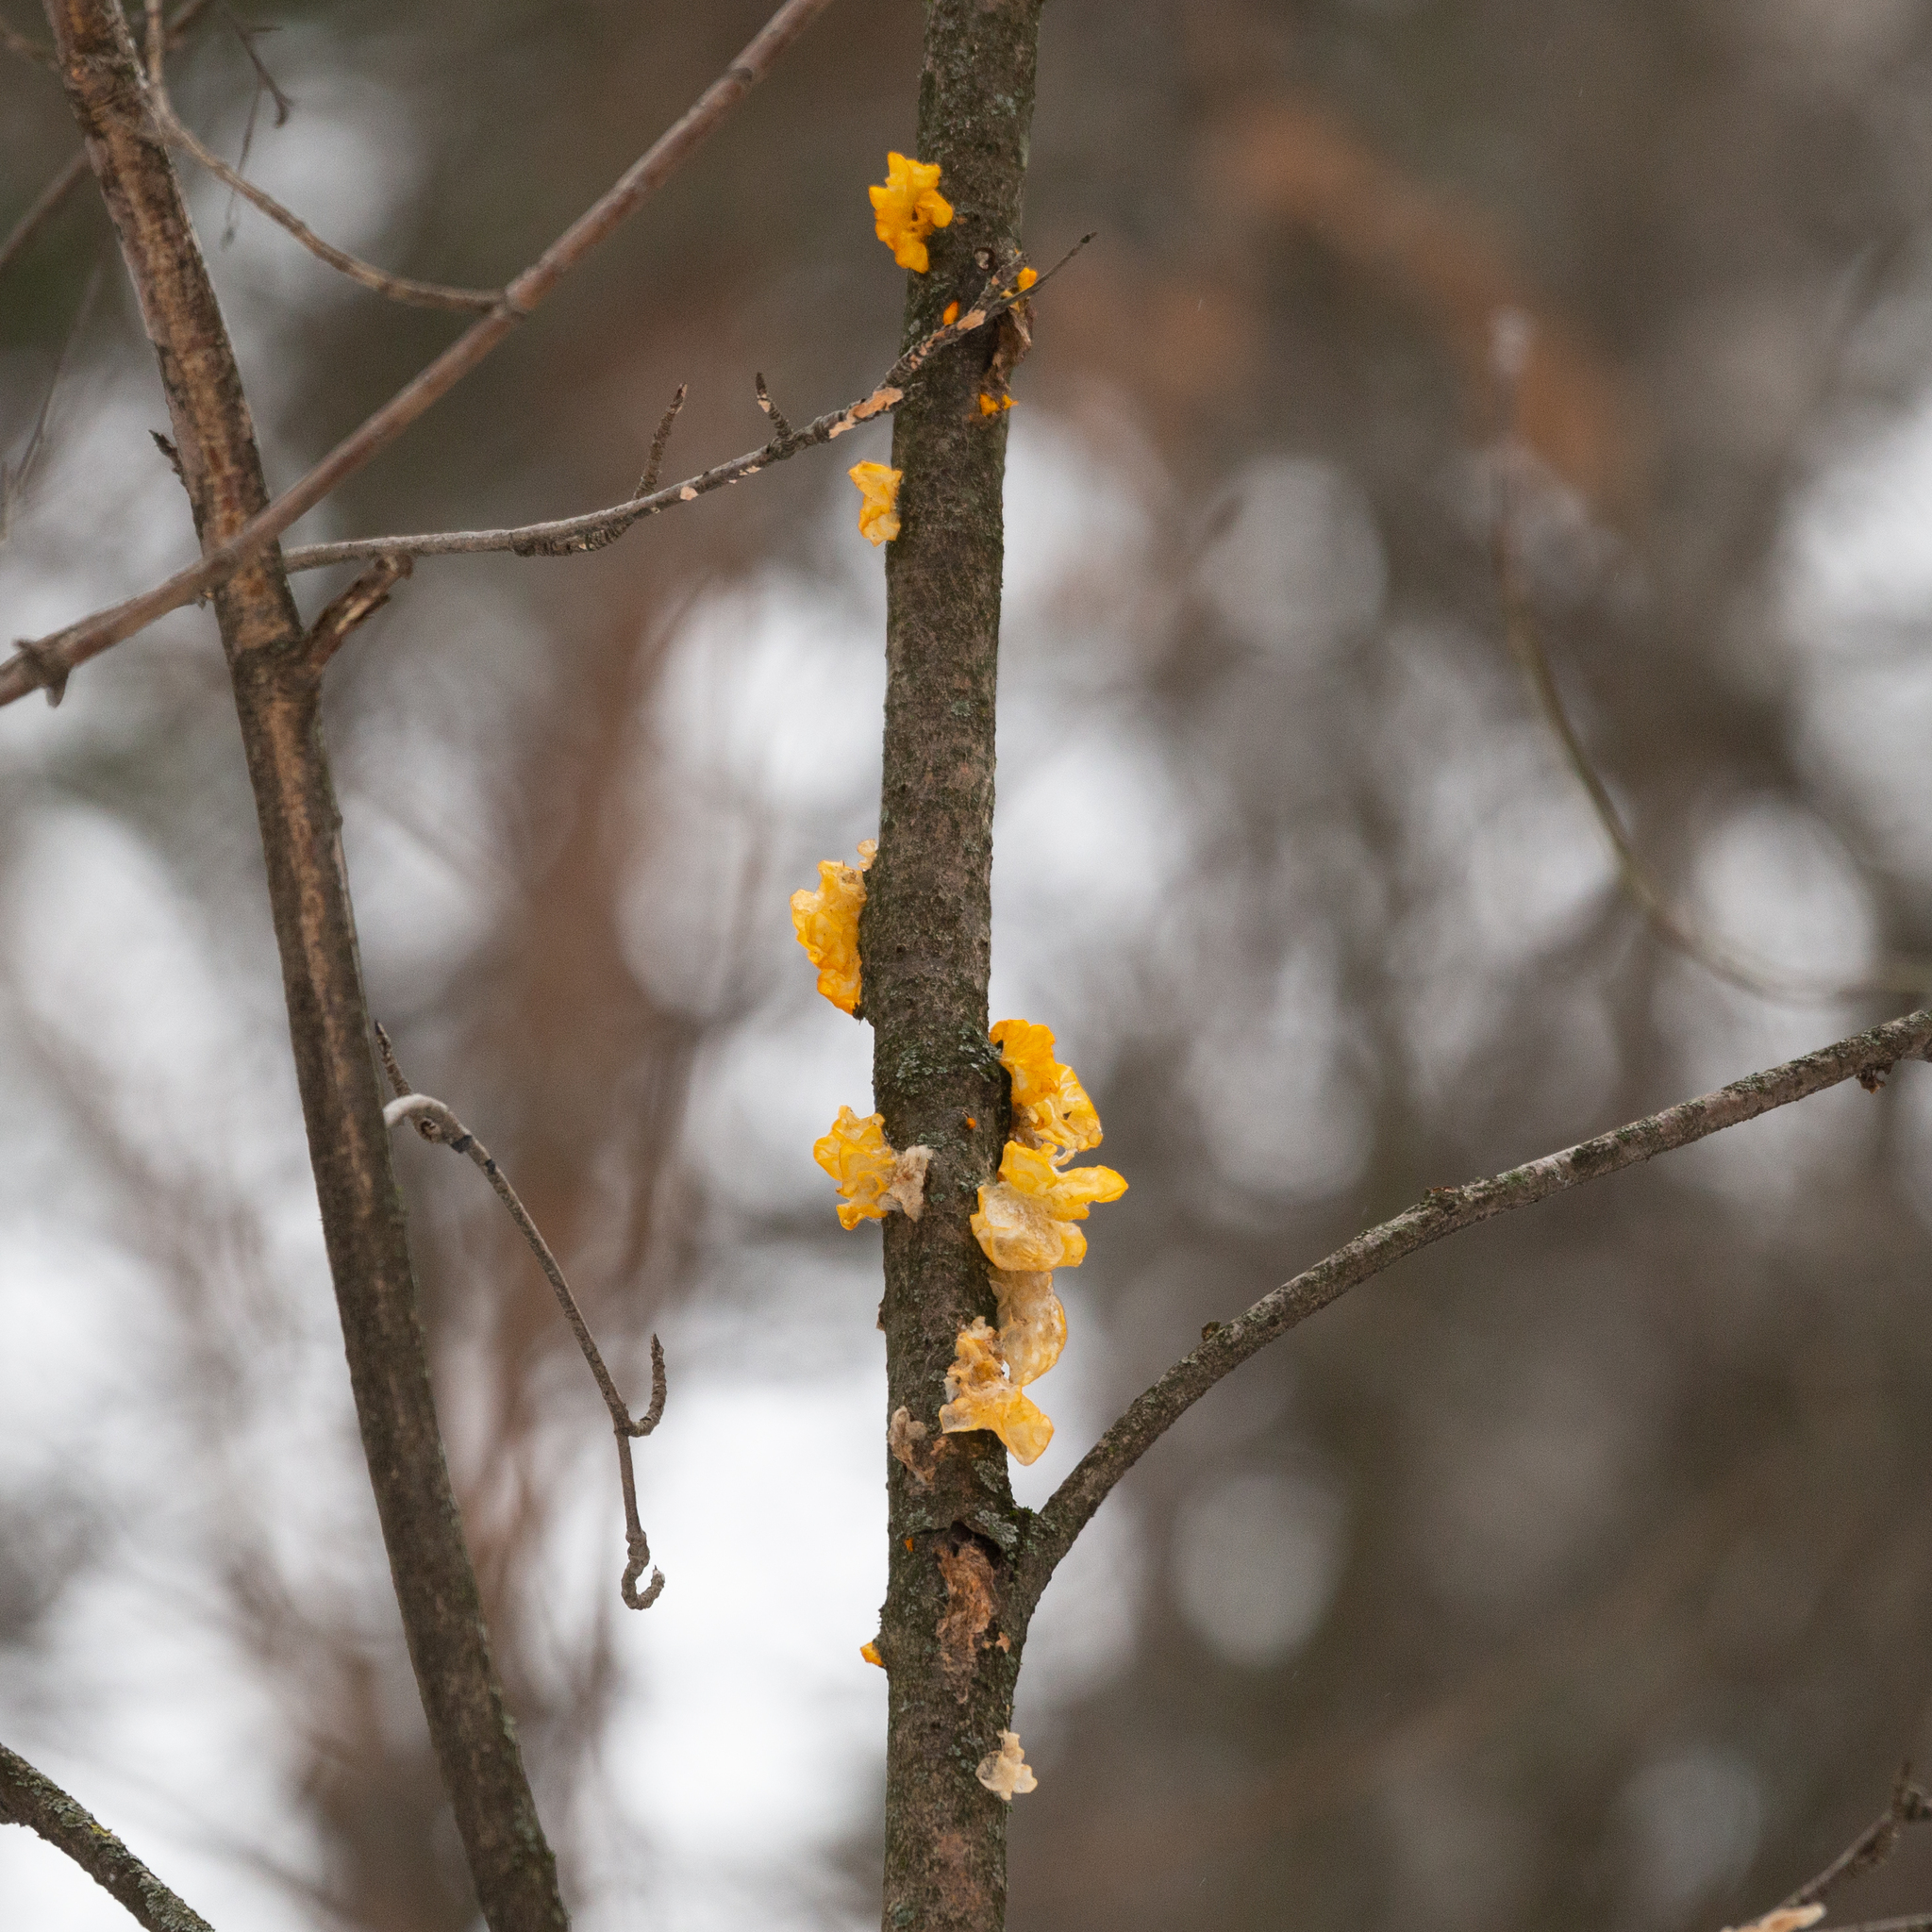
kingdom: Fungi
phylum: Basidiomycota
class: Tremellomycetes
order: Tremellales
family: Tremellaceae
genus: Tremella
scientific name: Tremella mesenterica
